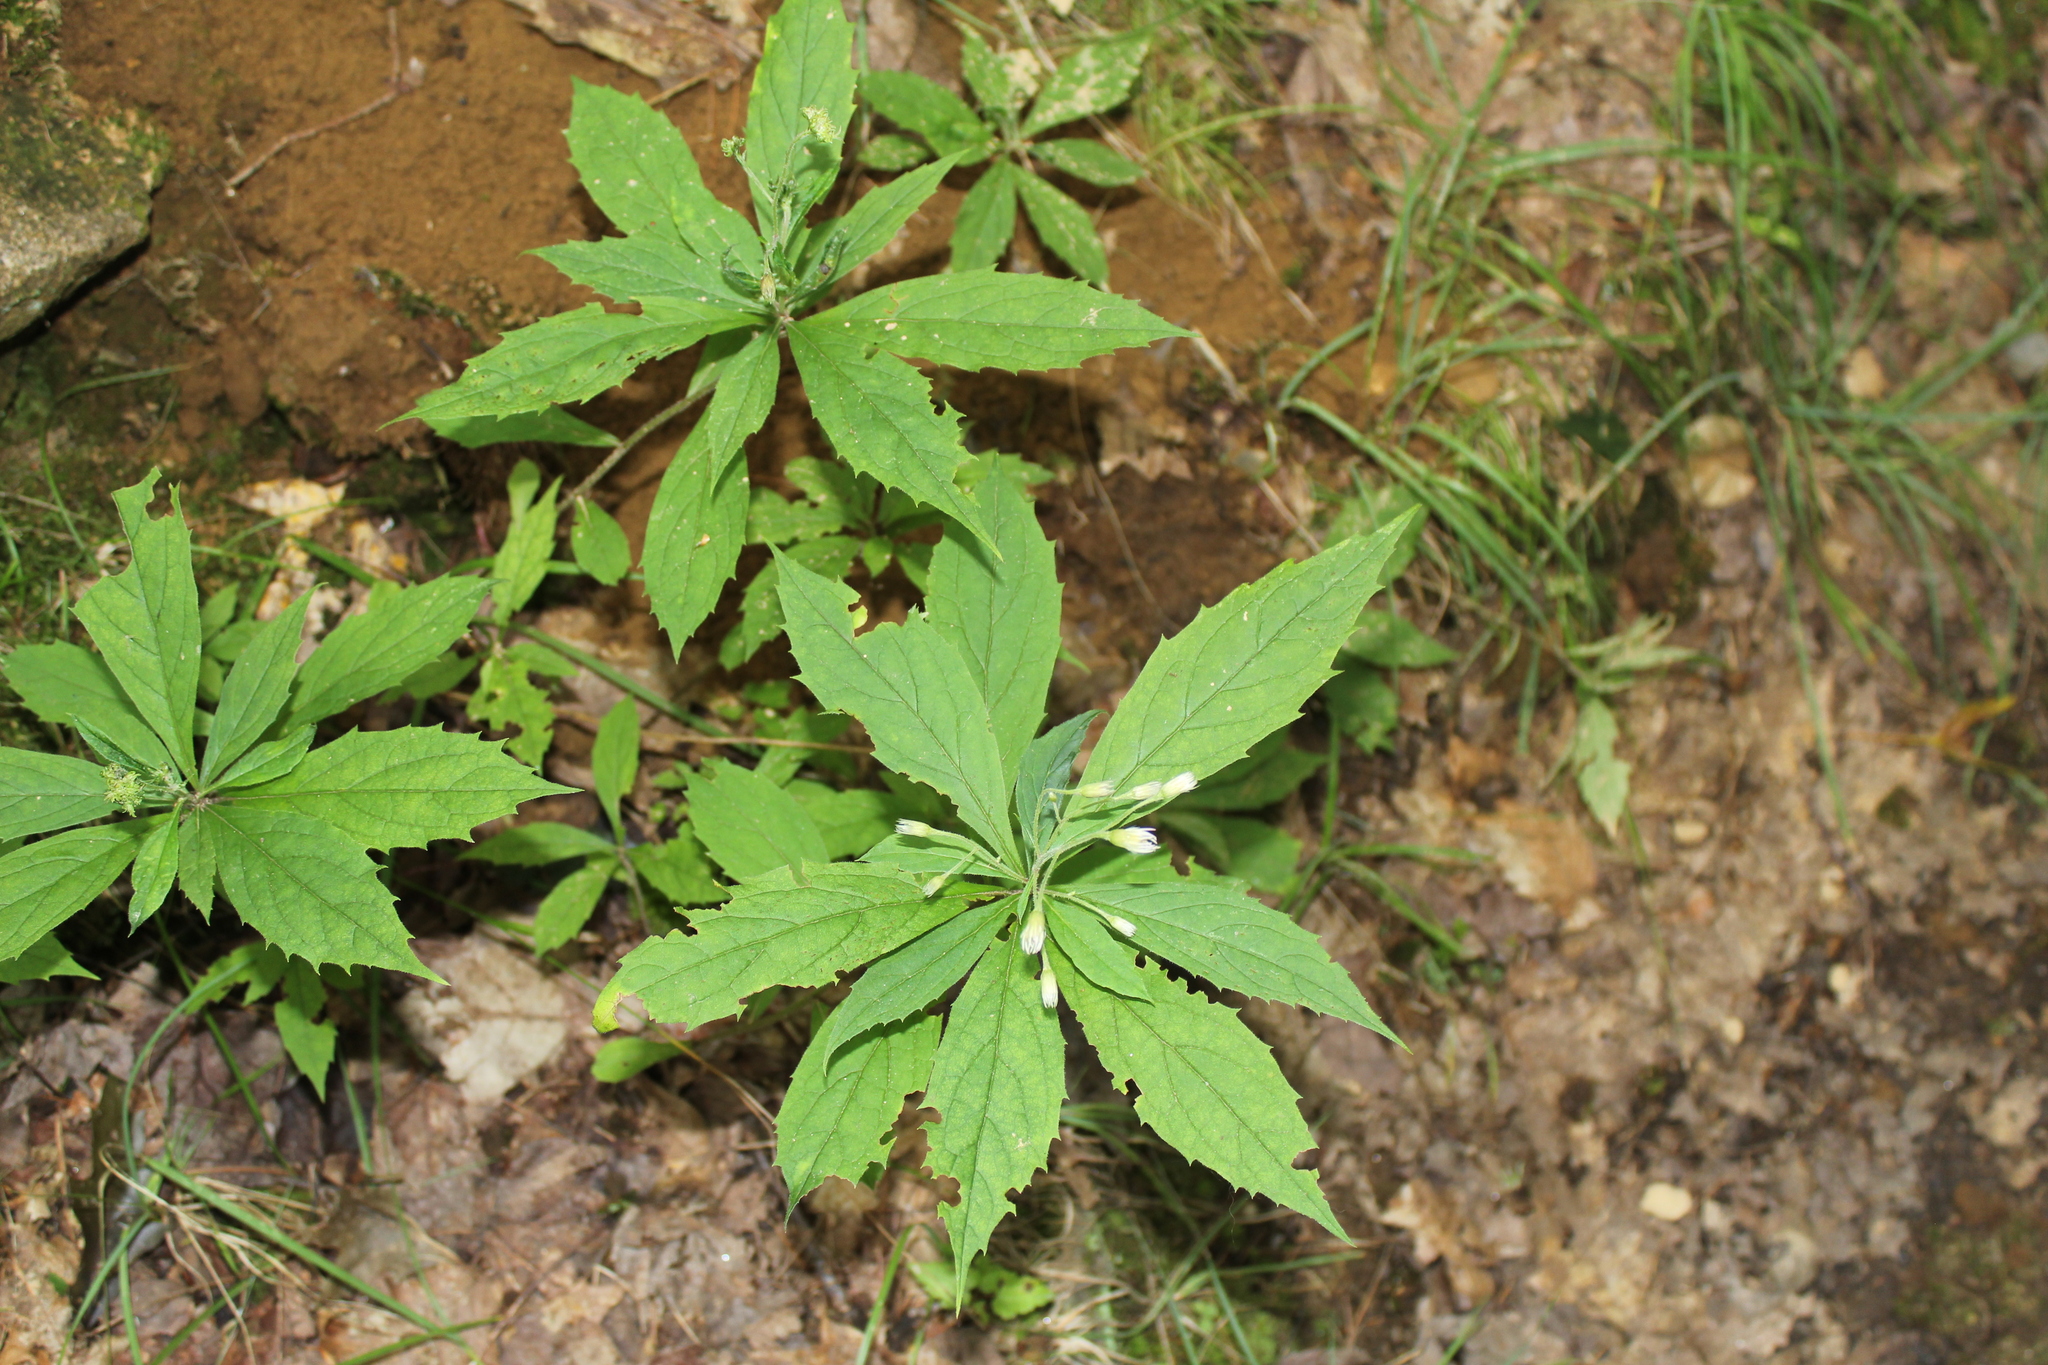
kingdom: Plantae
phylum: Tracheophyta
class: Magnoliopsida
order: Asterales
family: Asteraceae
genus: Oclemena
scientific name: Oclemena acuminata
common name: Mountain aster
